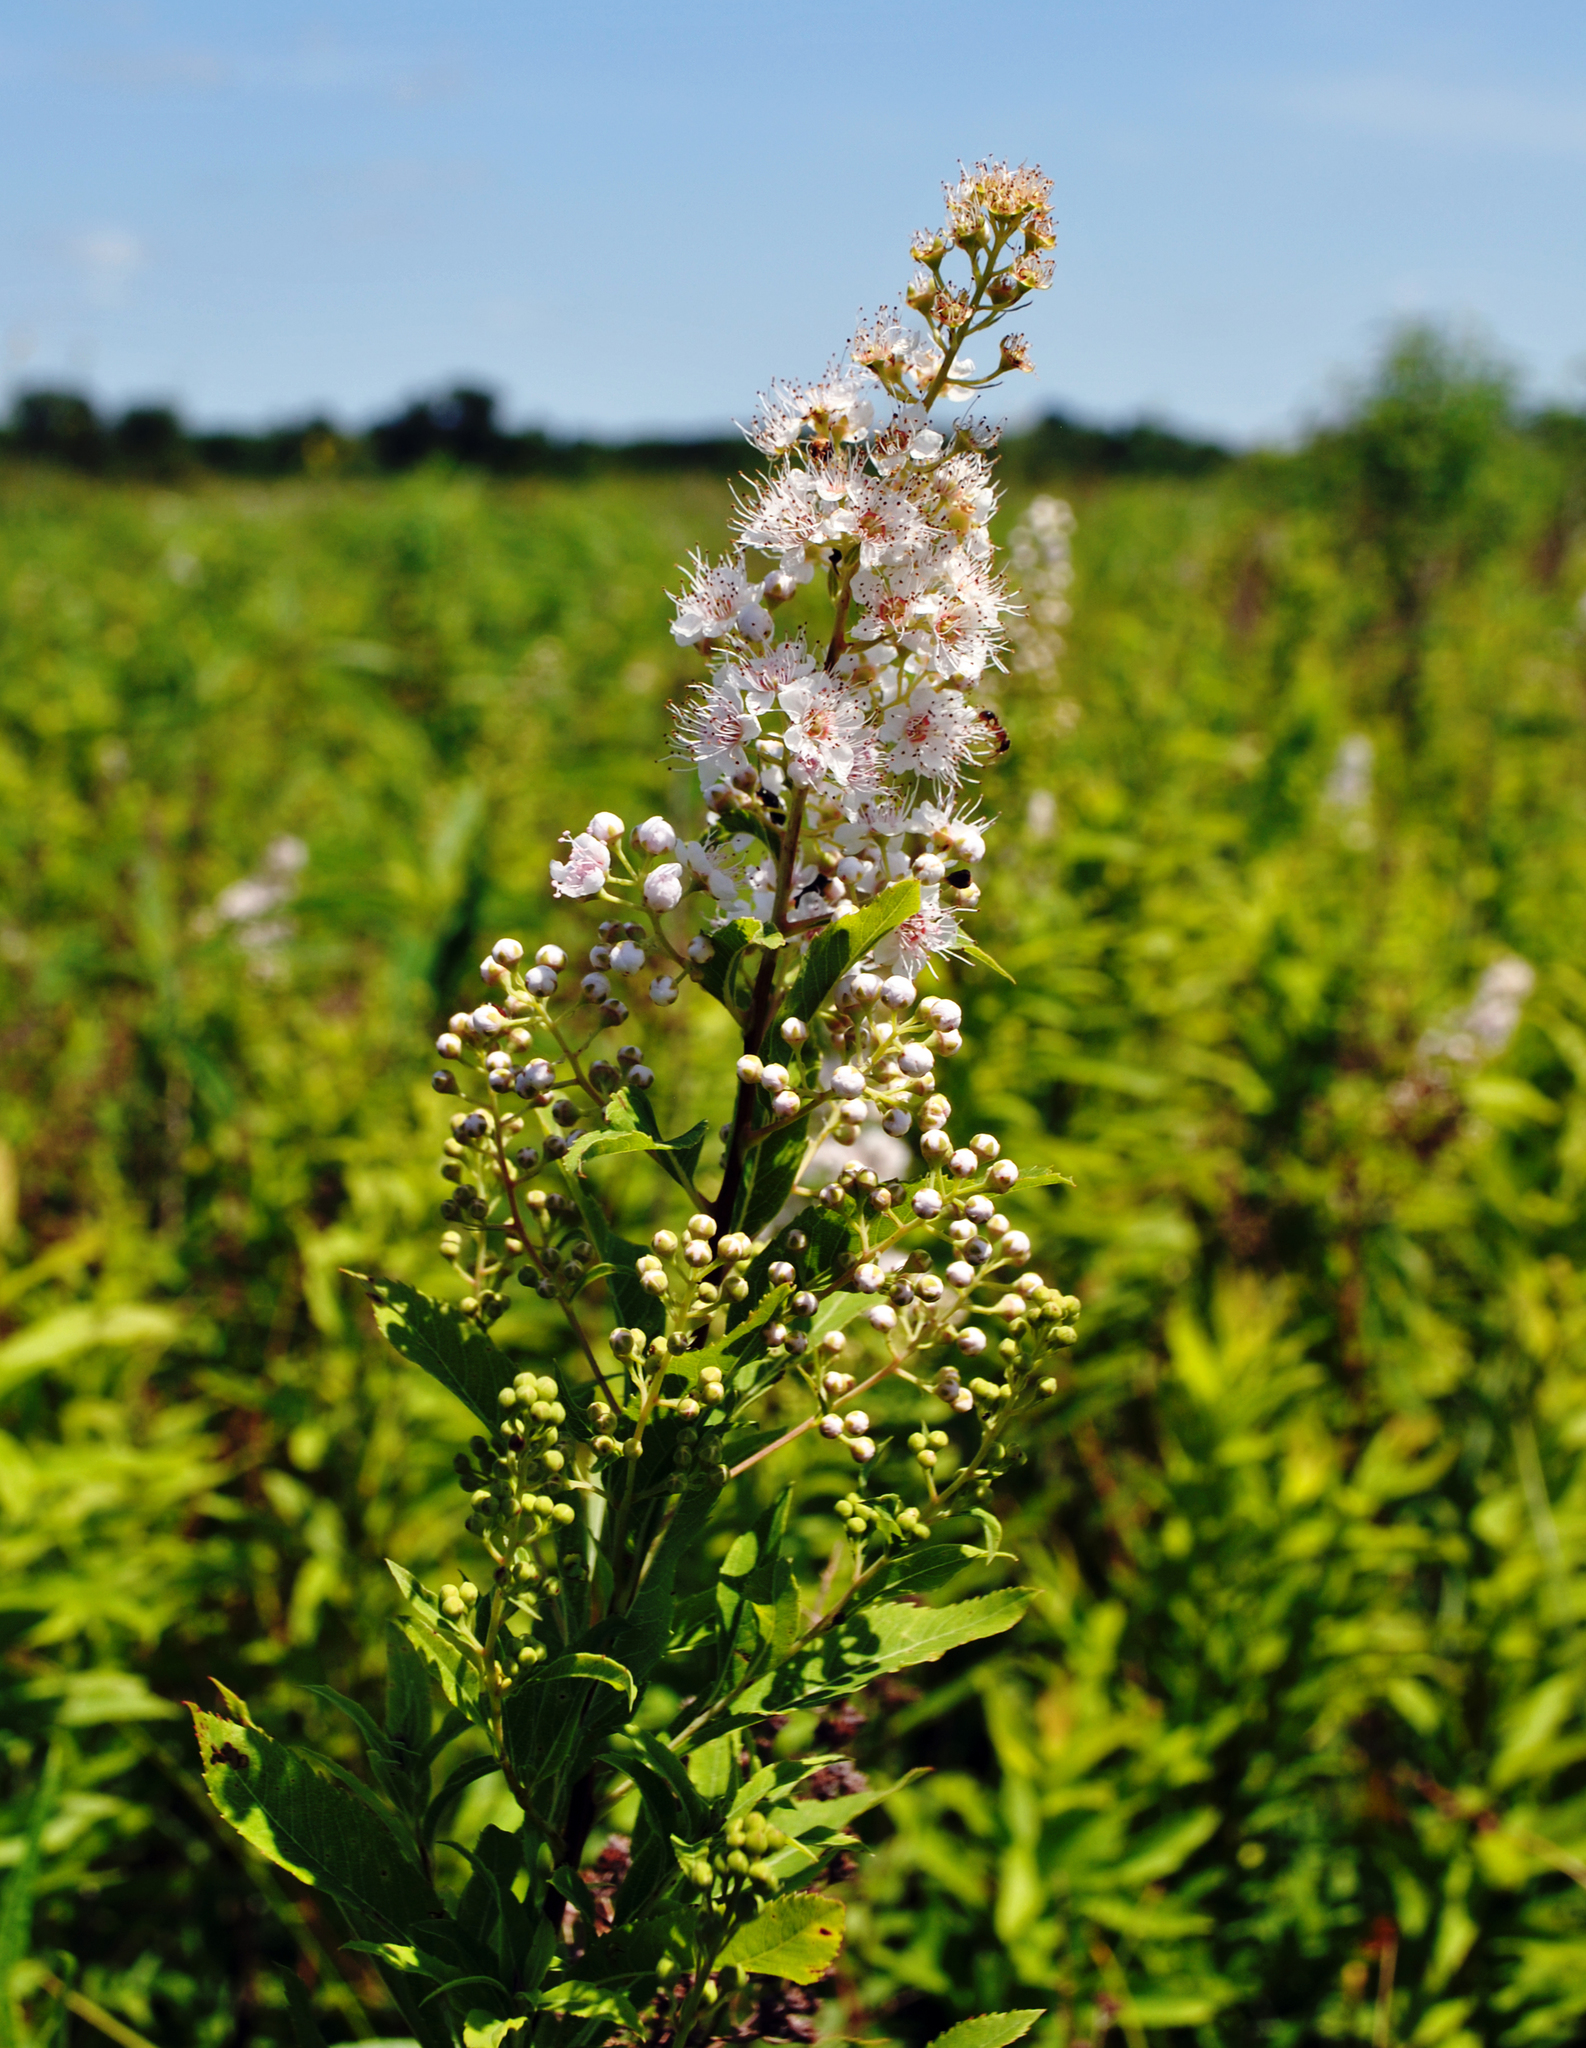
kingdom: Plantae
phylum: Tracheophyta
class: Magnoliopsida
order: Rosales
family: Rosaceae
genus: Spiraea
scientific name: Spiraea alba
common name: Pale bridewort
